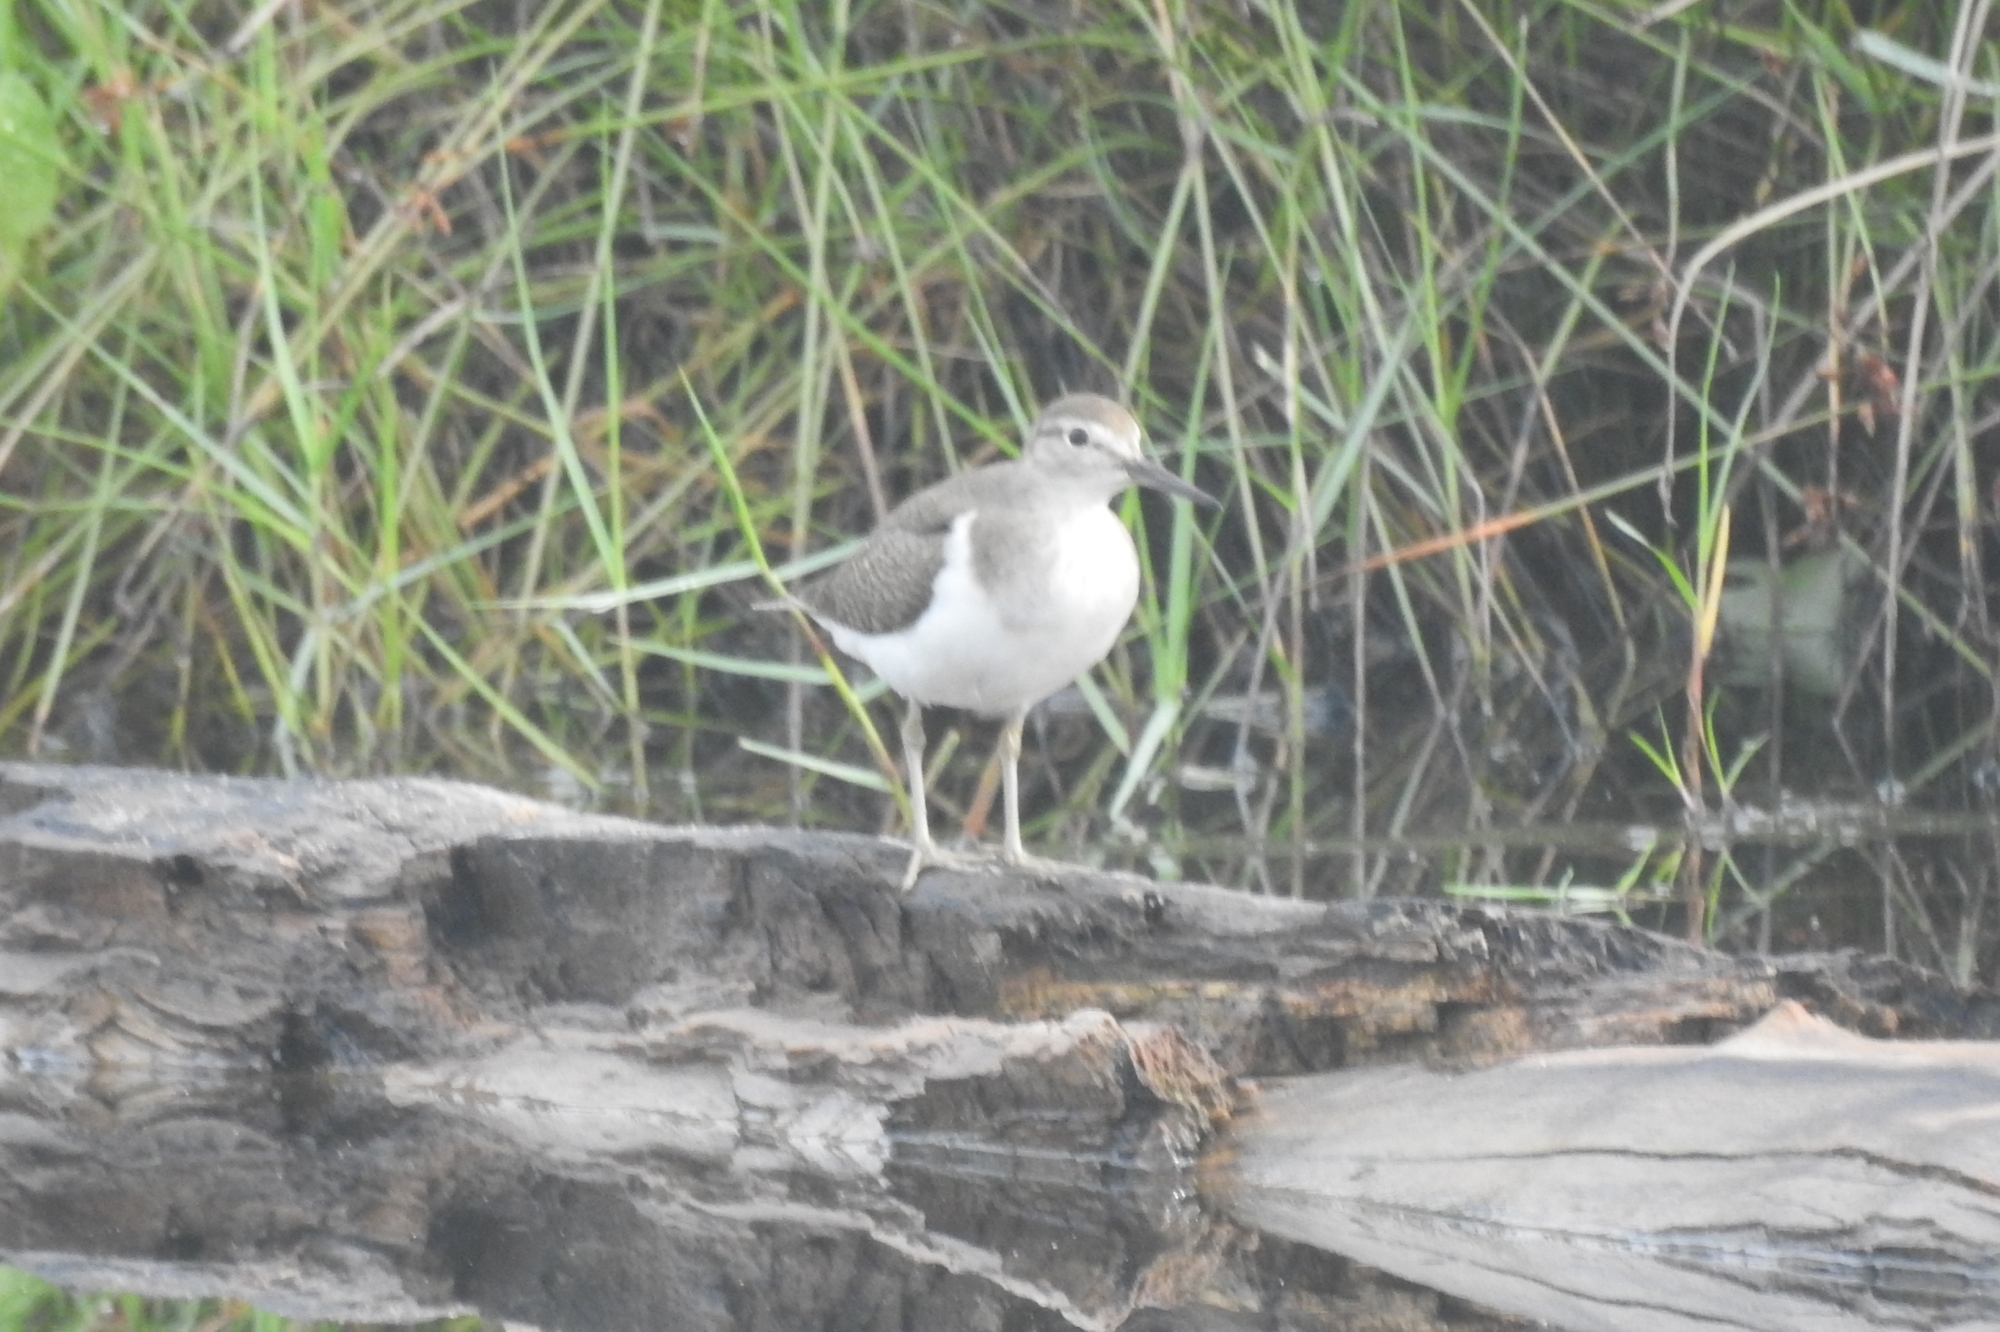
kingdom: Animalia
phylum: Chordata
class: Aves
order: Charadriiformes
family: Scolopacidae
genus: Actitis
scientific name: Actitis hypoleucos
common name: Common sandpiper
